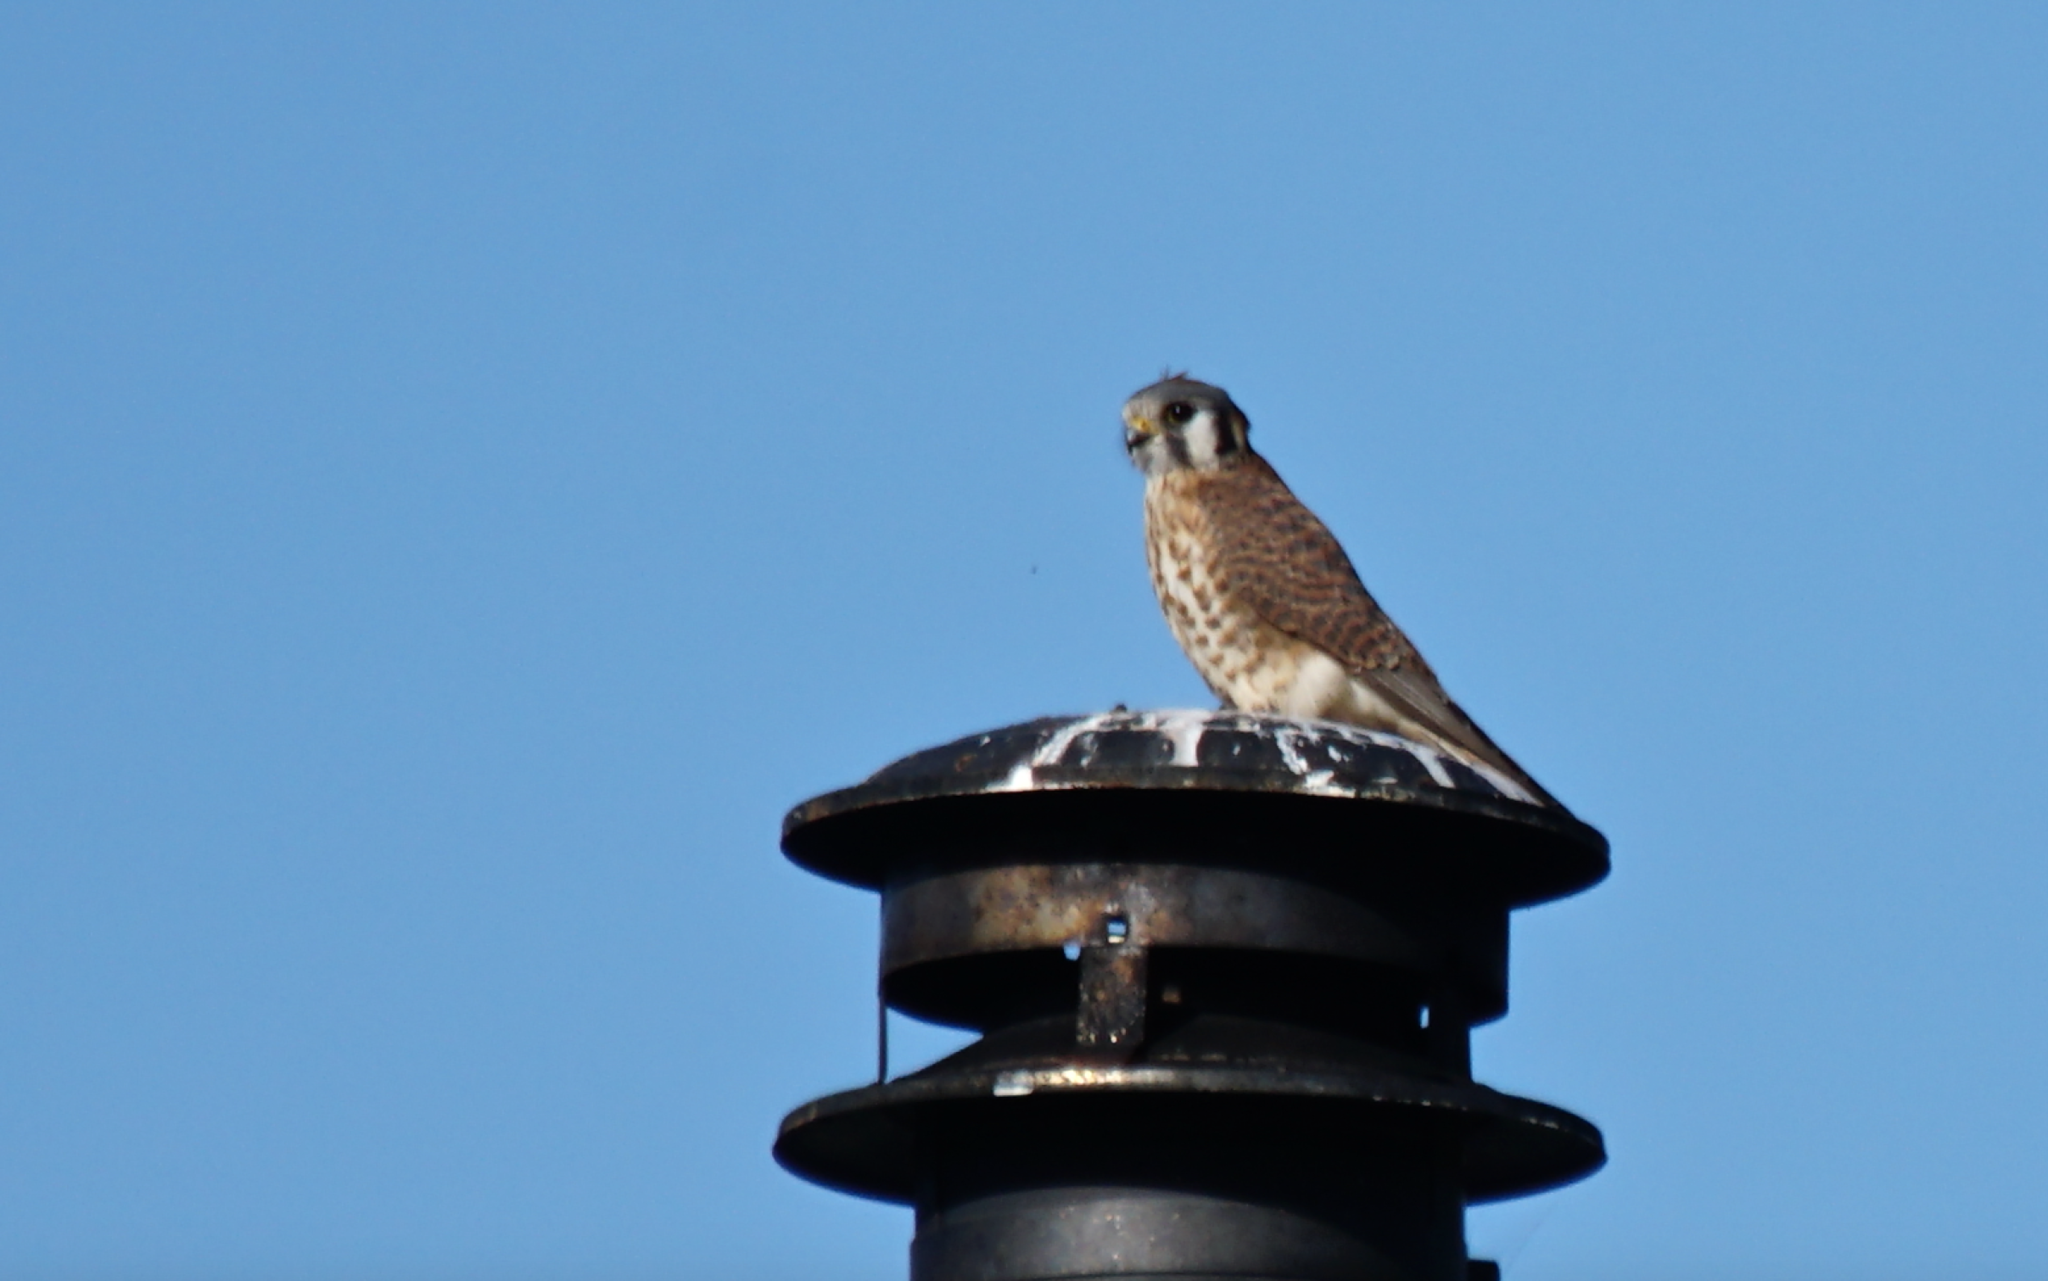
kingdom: Animalia
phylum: Chordata
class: Aves
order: Falconiformes
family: Falconidae
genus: Falco
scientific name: Falco sparverius
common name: American kestrel
